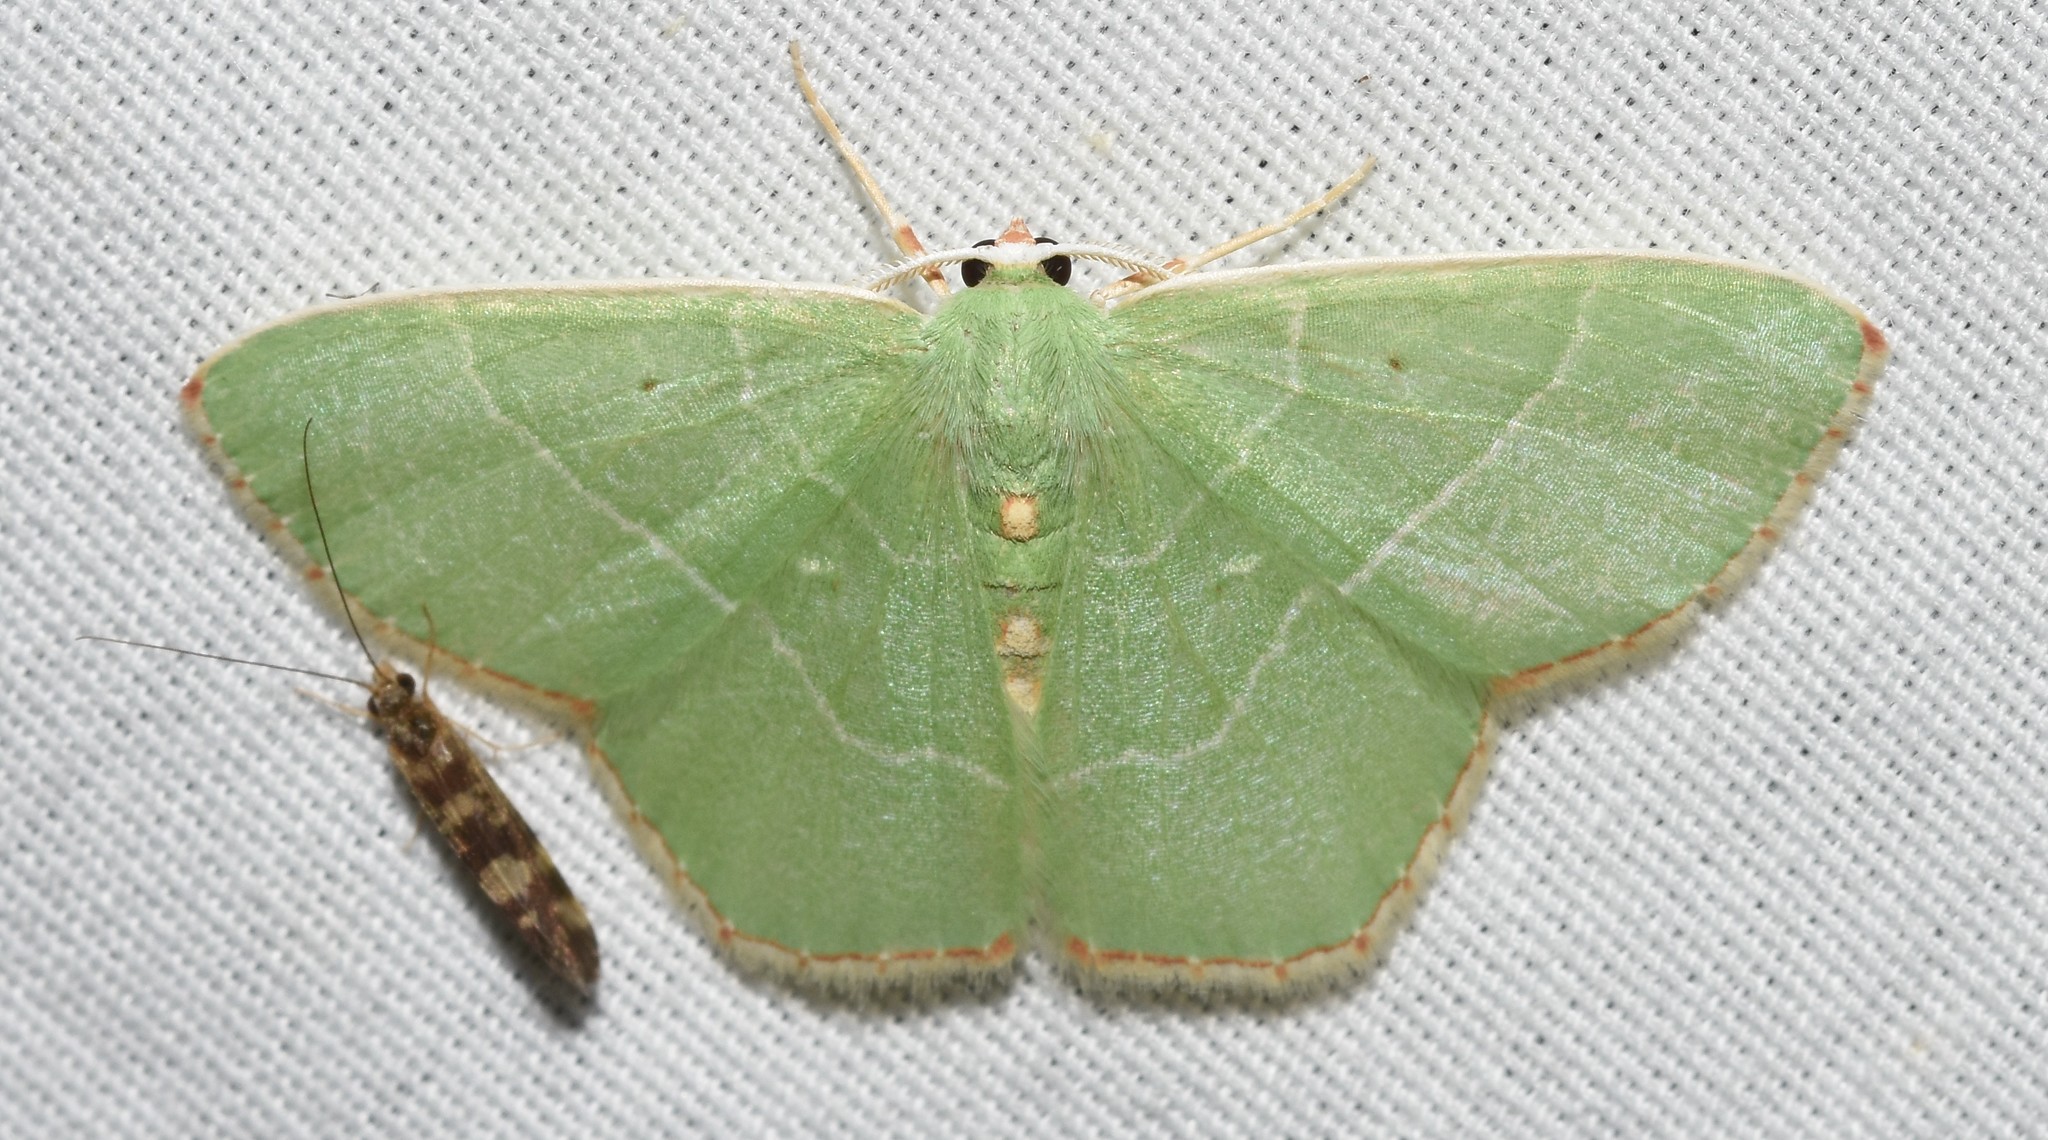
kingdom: Animalia
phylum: Arthropoda
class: Insecta
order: Lepidoptera
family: Geometridae
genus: Nemoria
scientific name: Nemoria bistriaria
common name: Red-fringed emerald
